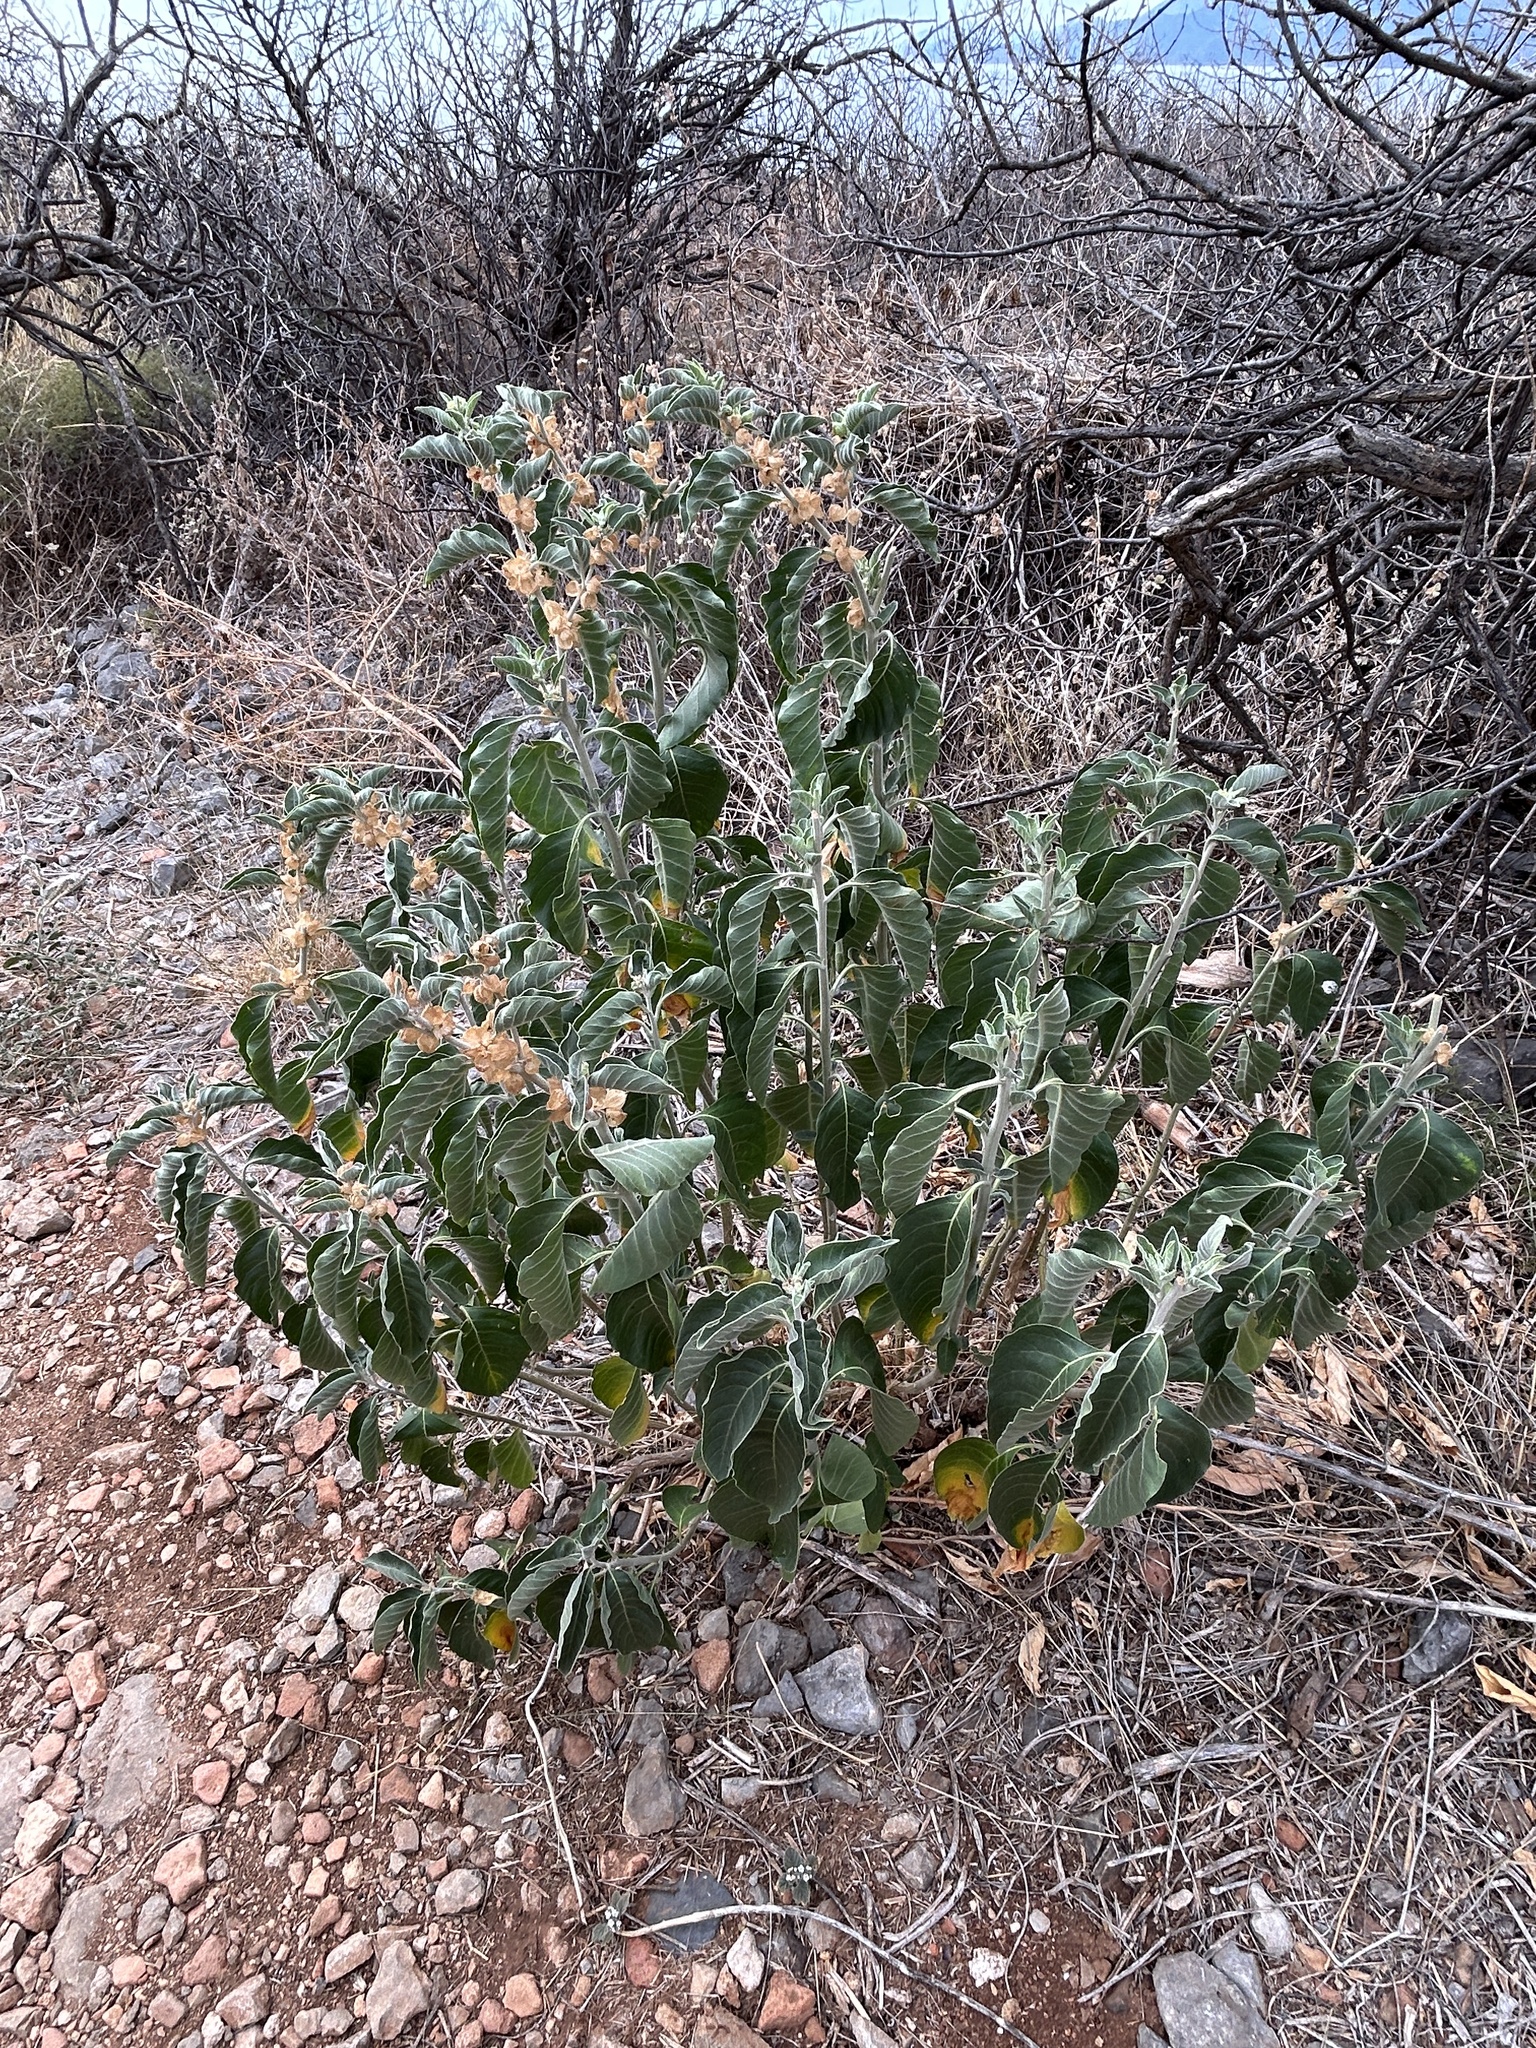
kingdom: Plantae
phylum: Tracheophyta
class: Magnoliopsida
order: Solanales
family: Solanaceae
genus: Withania
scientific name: Withania somnifera
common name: Winter-cherry
